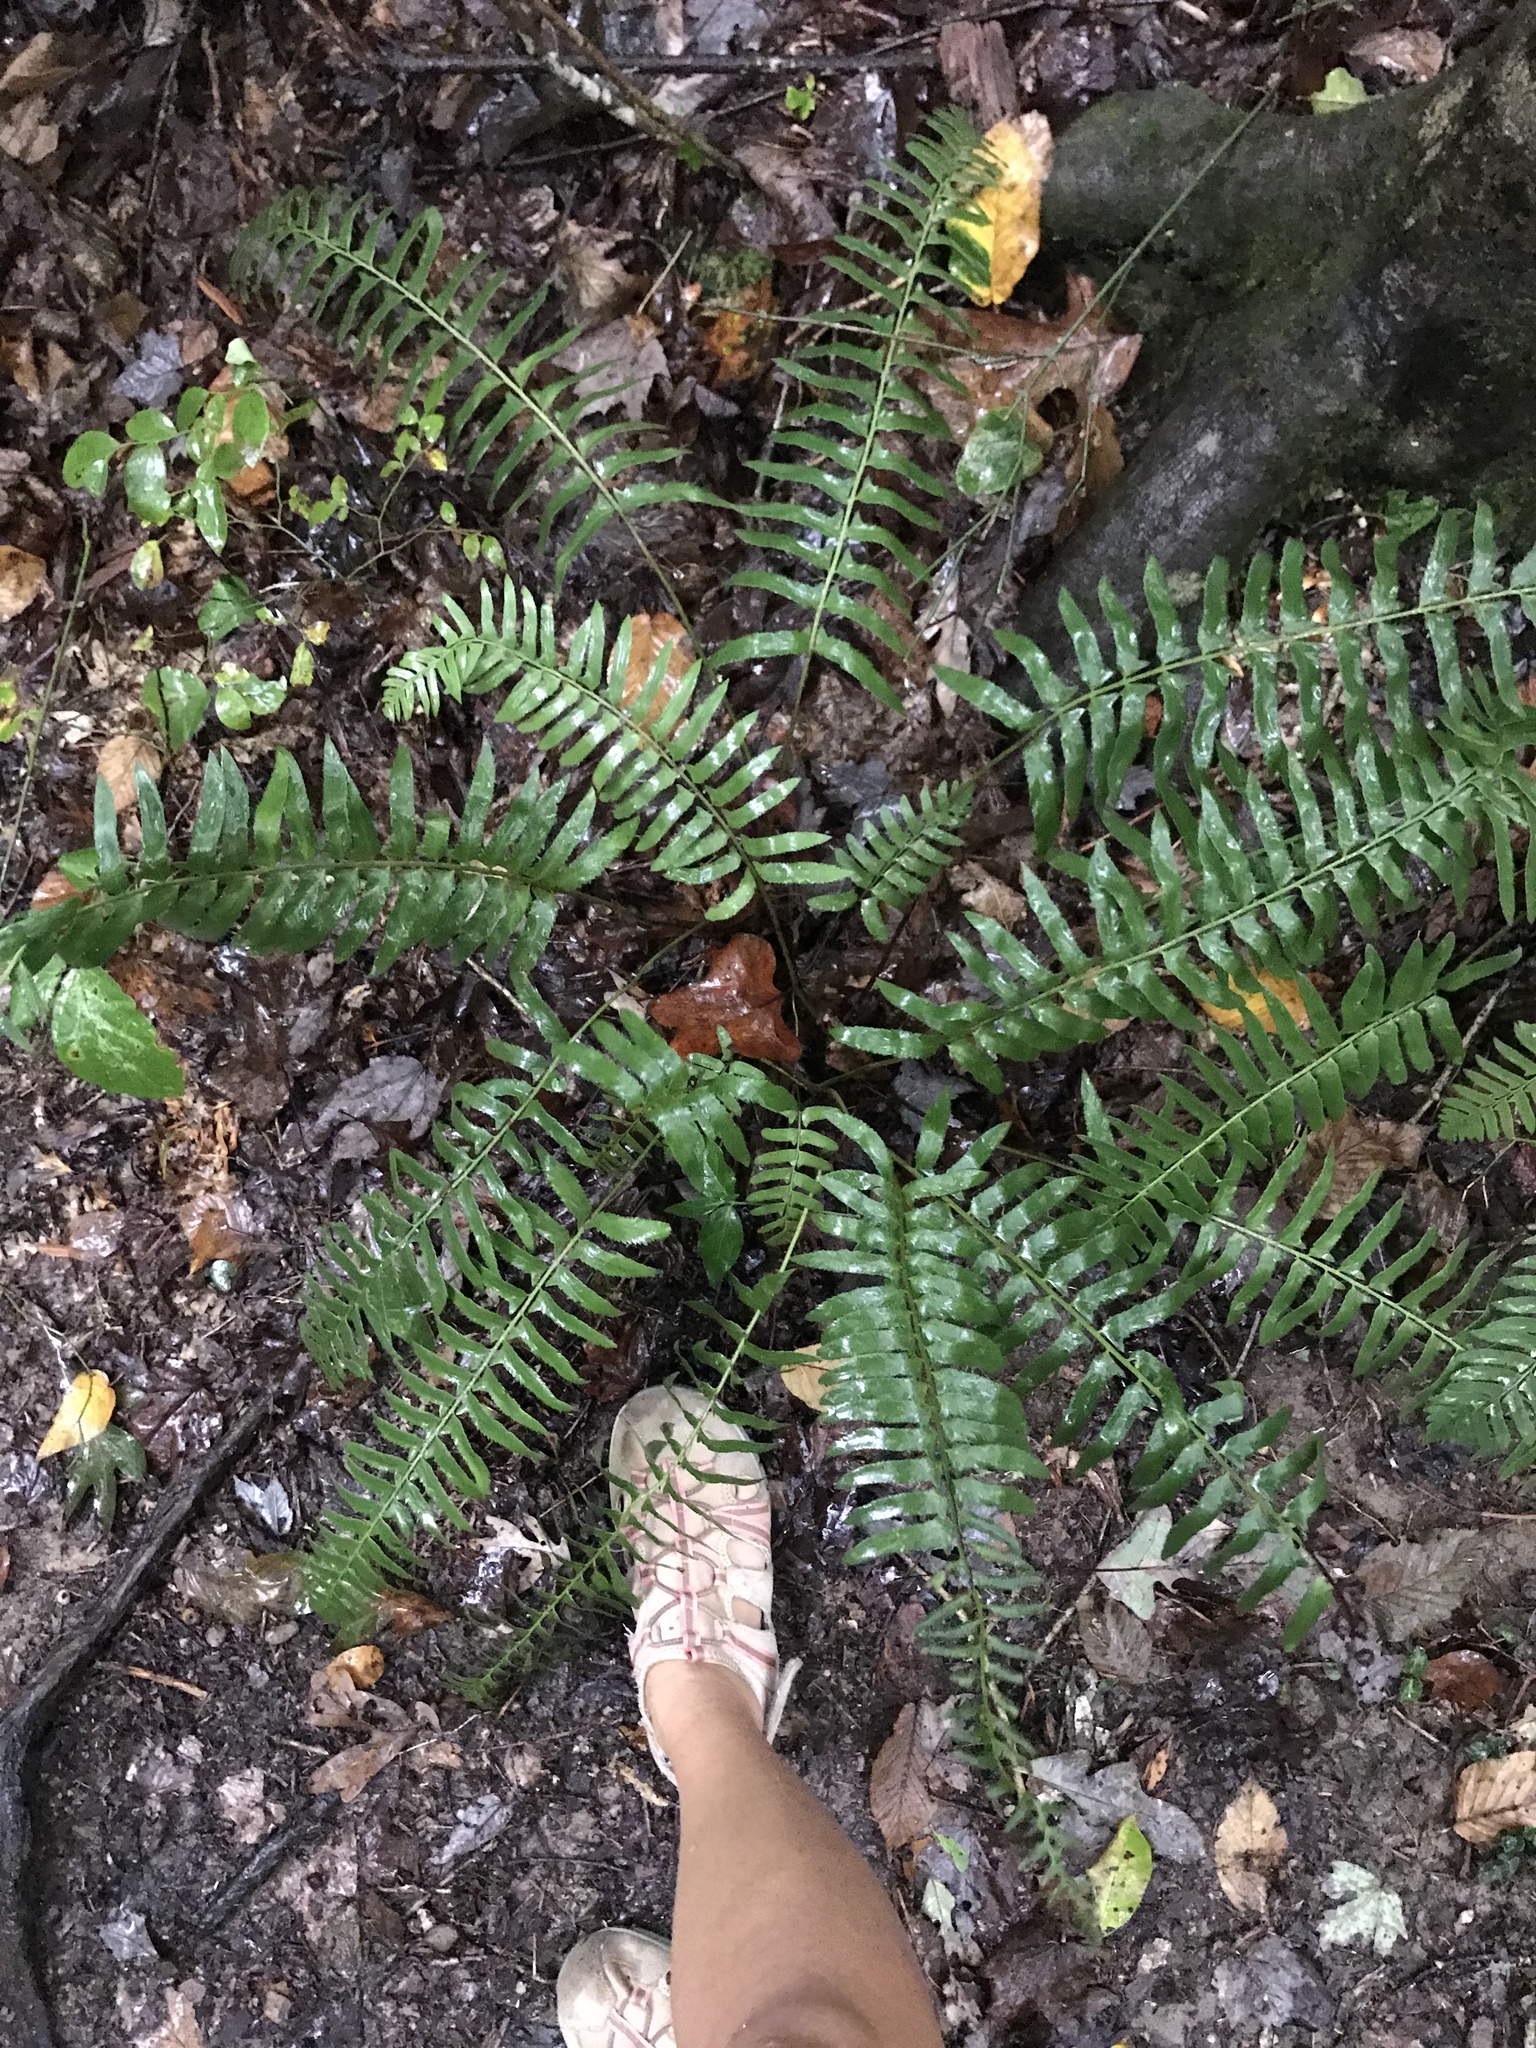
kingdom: Plantae
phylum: Tracheophyta
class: Polypodiopsida
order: Polypodiales
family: Dryopteridaceae
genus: Polystichum
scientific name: Polystichum acrostichoides
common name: Christmas fern
